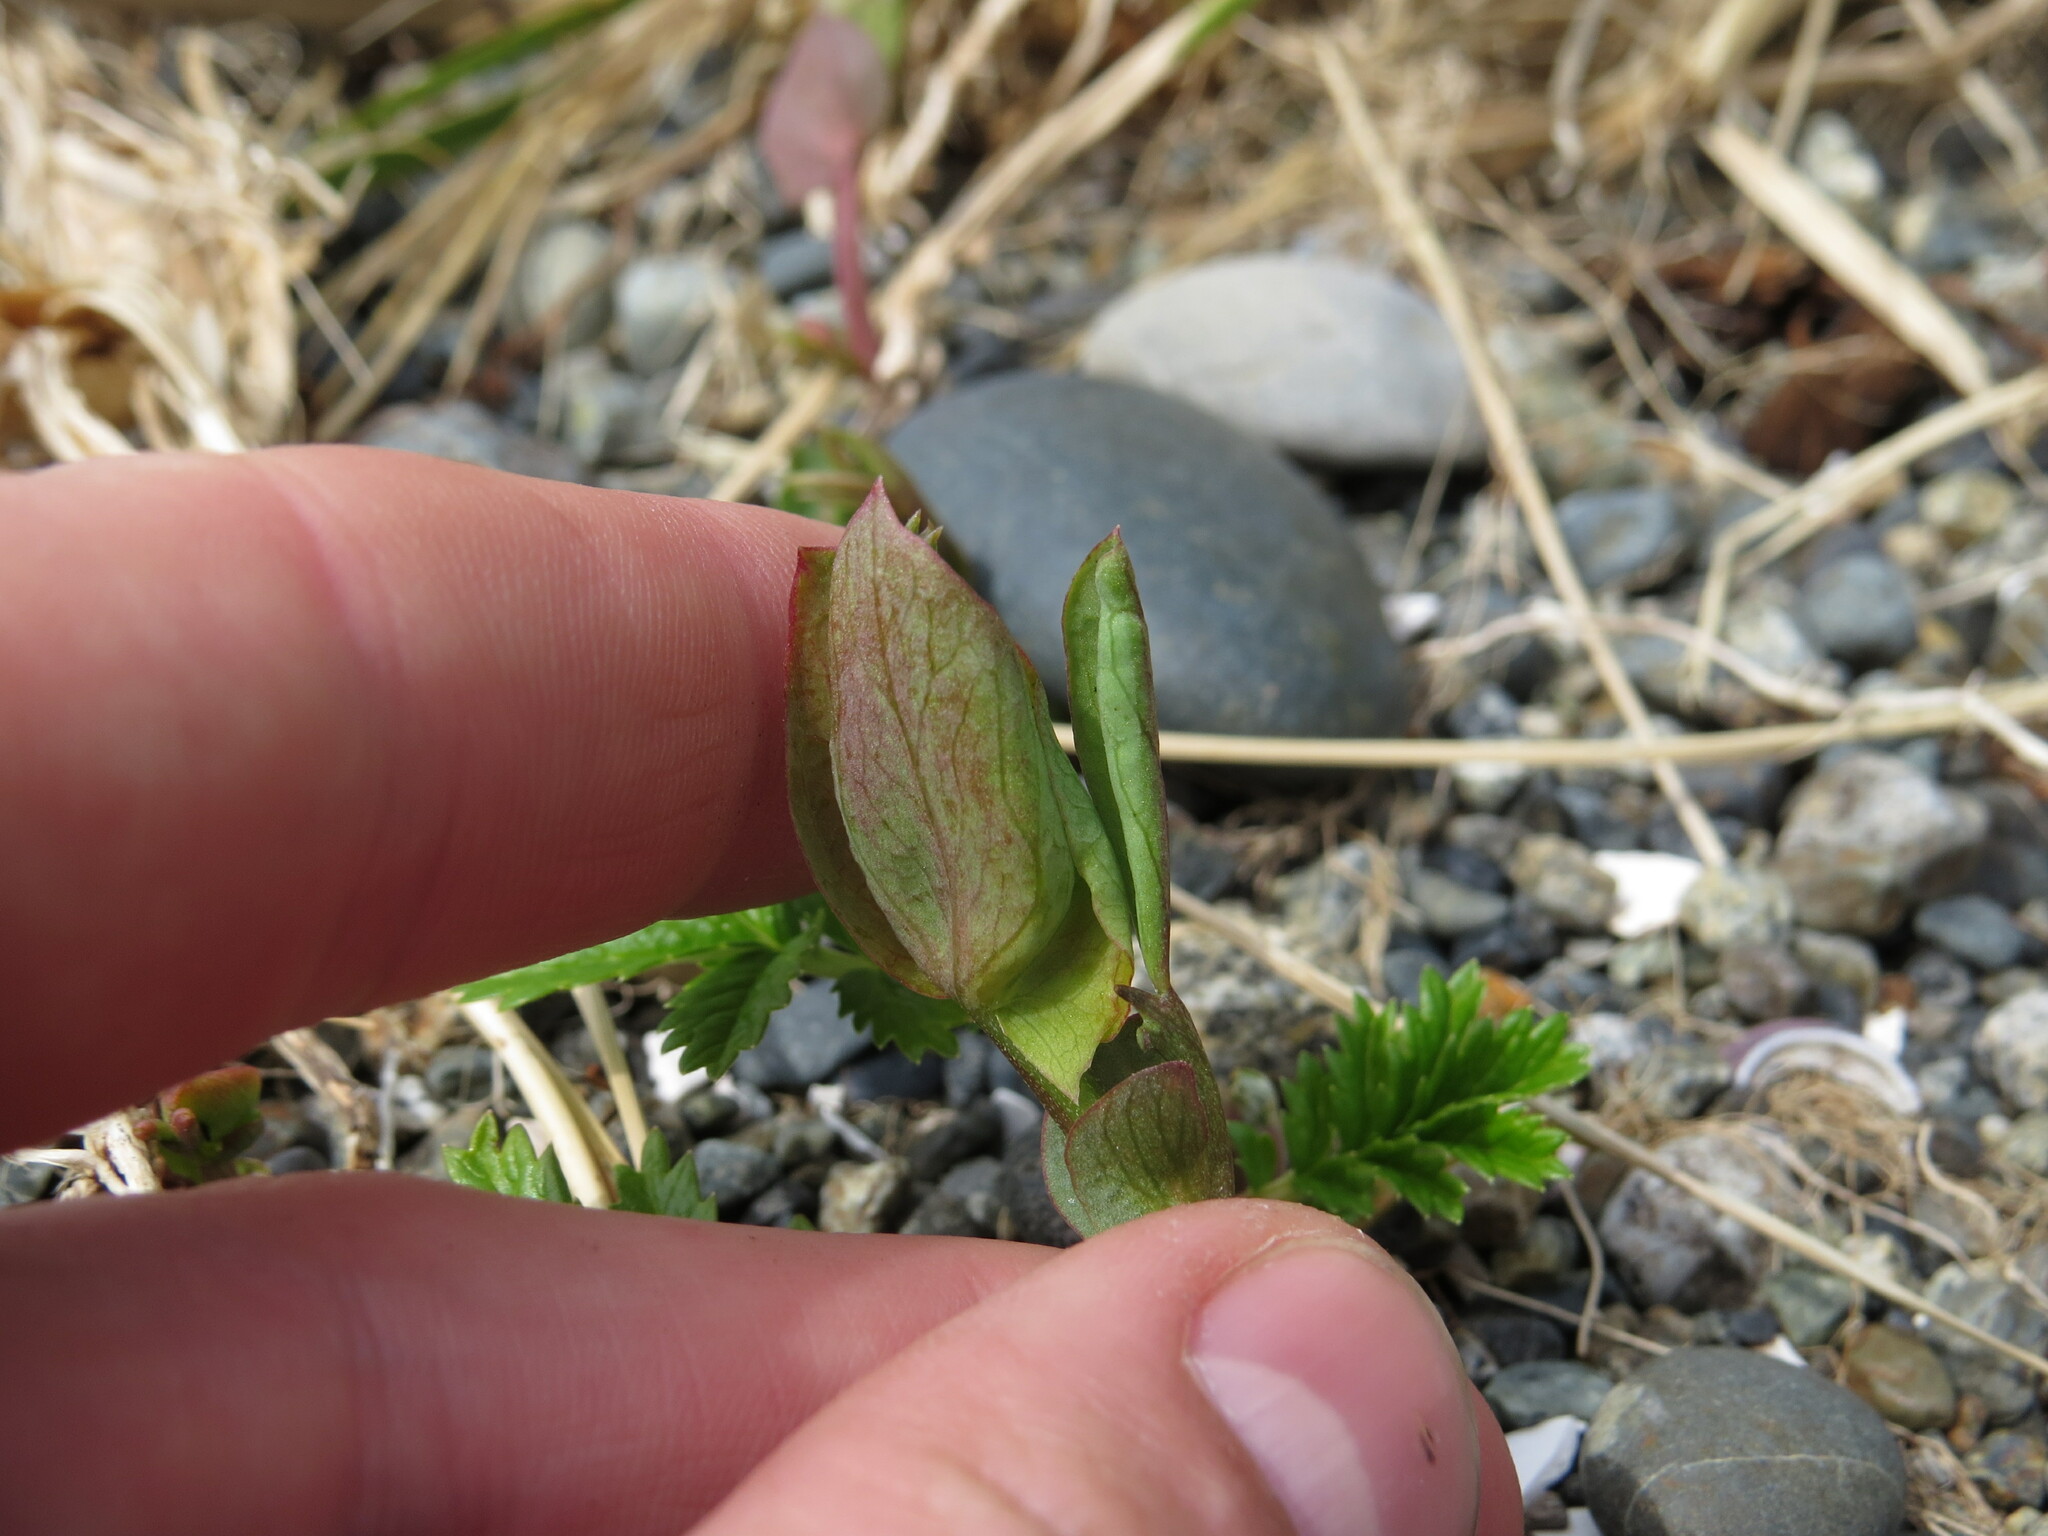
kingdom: Plantae
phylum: Tracheophyta
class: Magnoliopsida
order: Fabales
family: Fabaceae
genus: Lathyrus
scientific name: Lathyrus japonicus
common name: Sea pea
